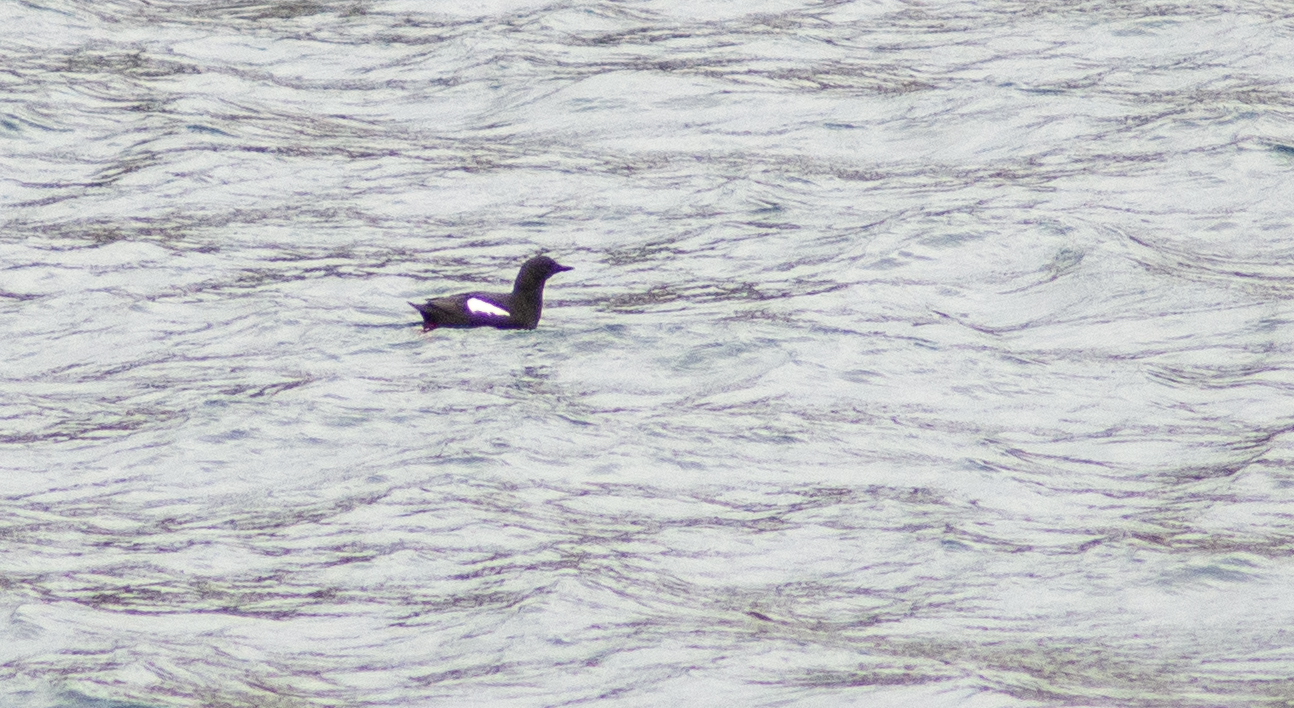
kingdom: Animalia
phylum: Chordata
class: Aves
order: Charadriiformes
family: Alcidae
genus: Cepphus
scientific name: Cepphus grylle
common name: Black guillemot
